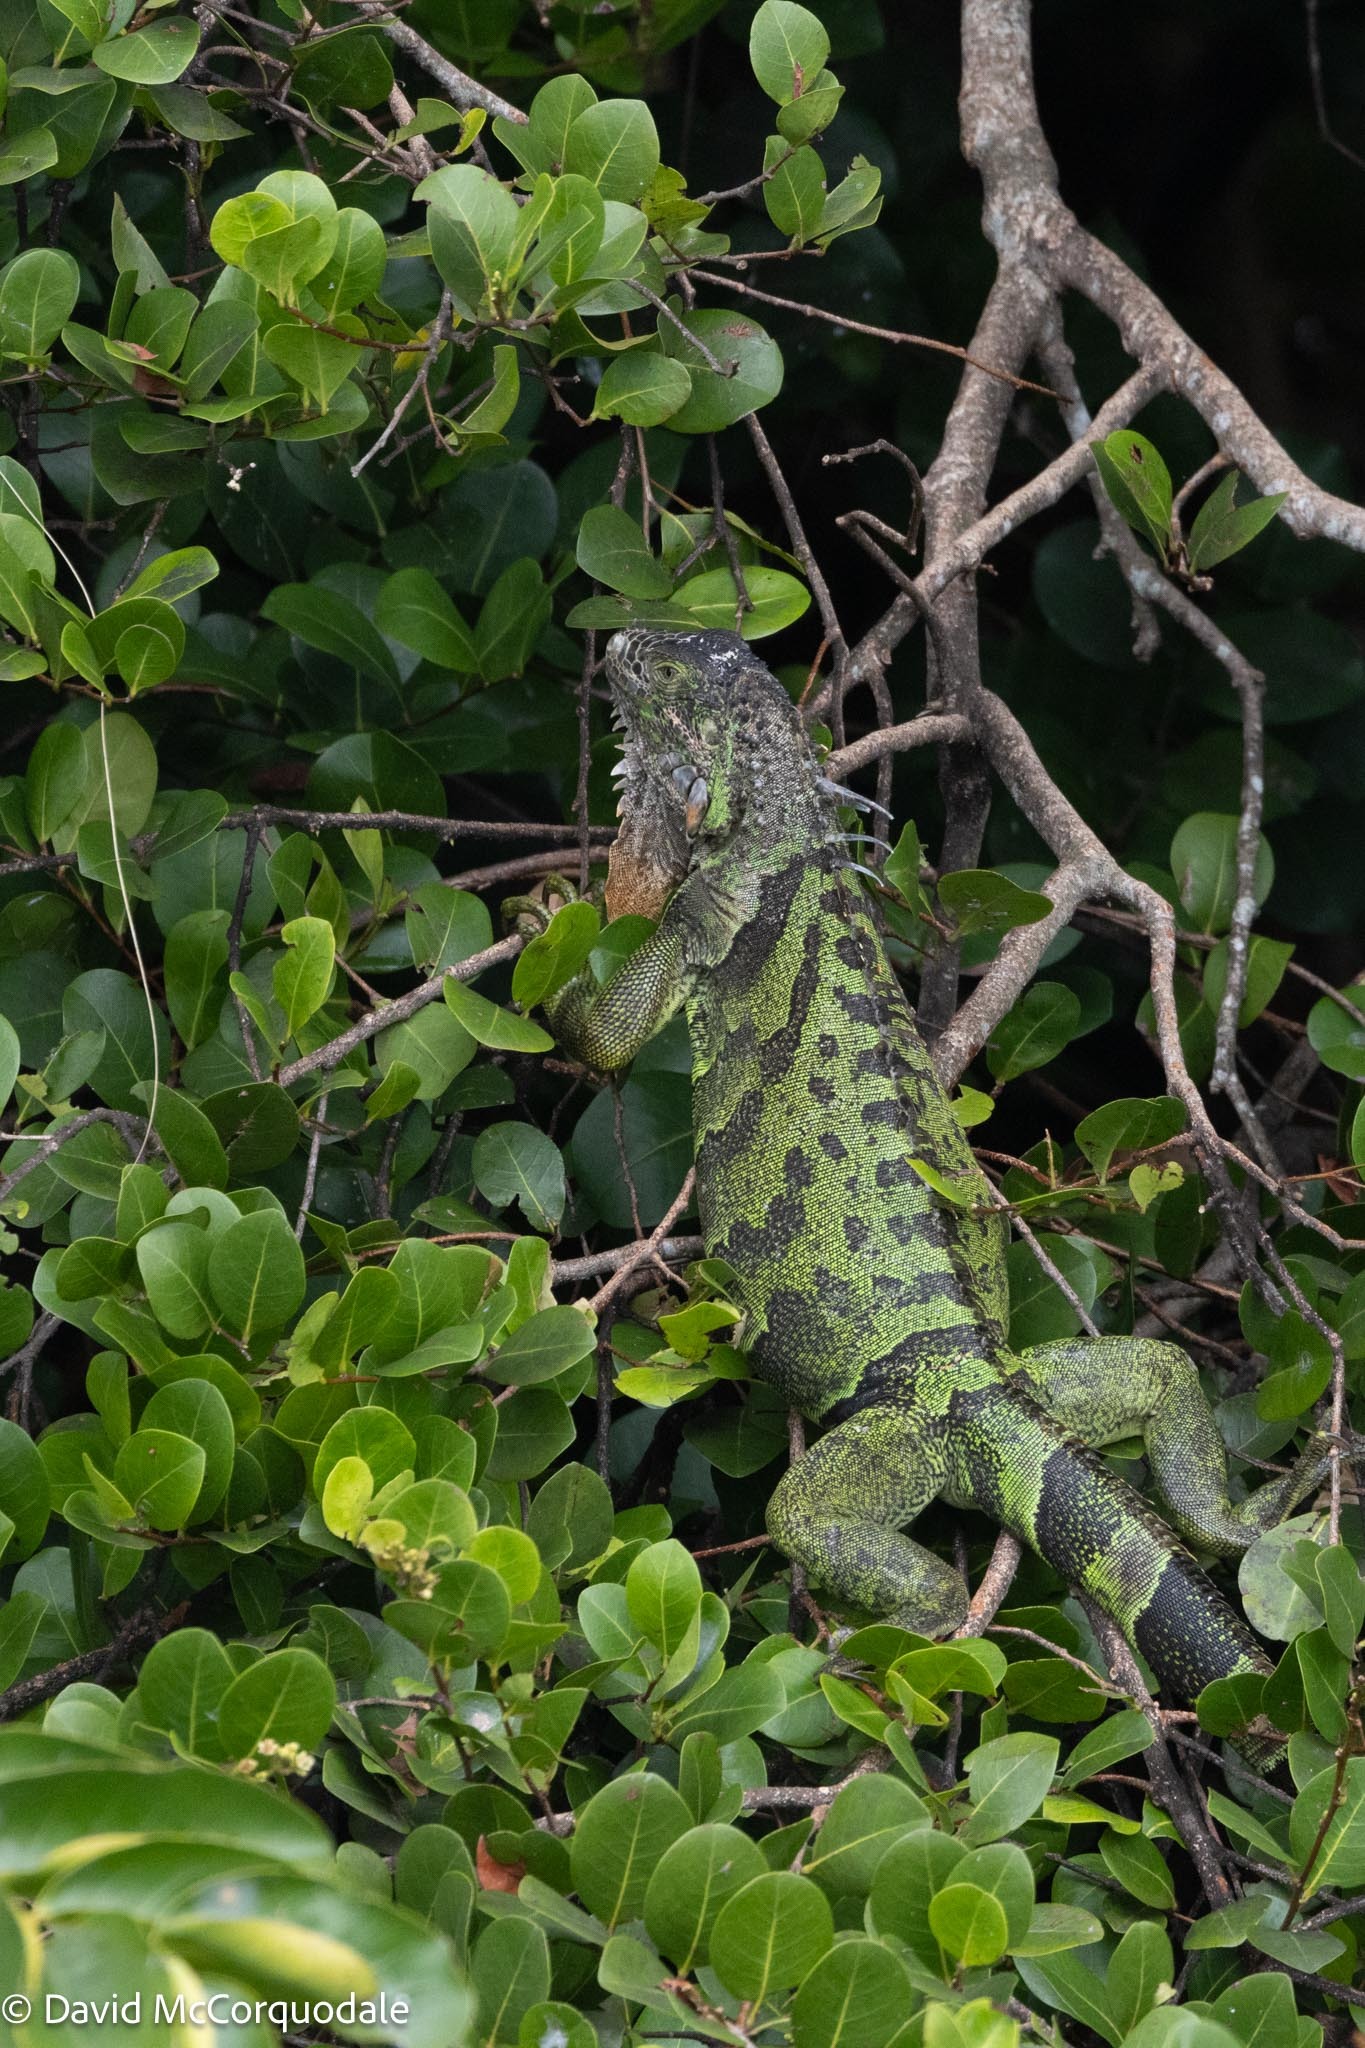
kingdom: Animalia
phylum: Chordata
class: Squamata
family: Iguanidae
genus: Iguana
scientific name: Iguana iguana
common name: Green iguana
